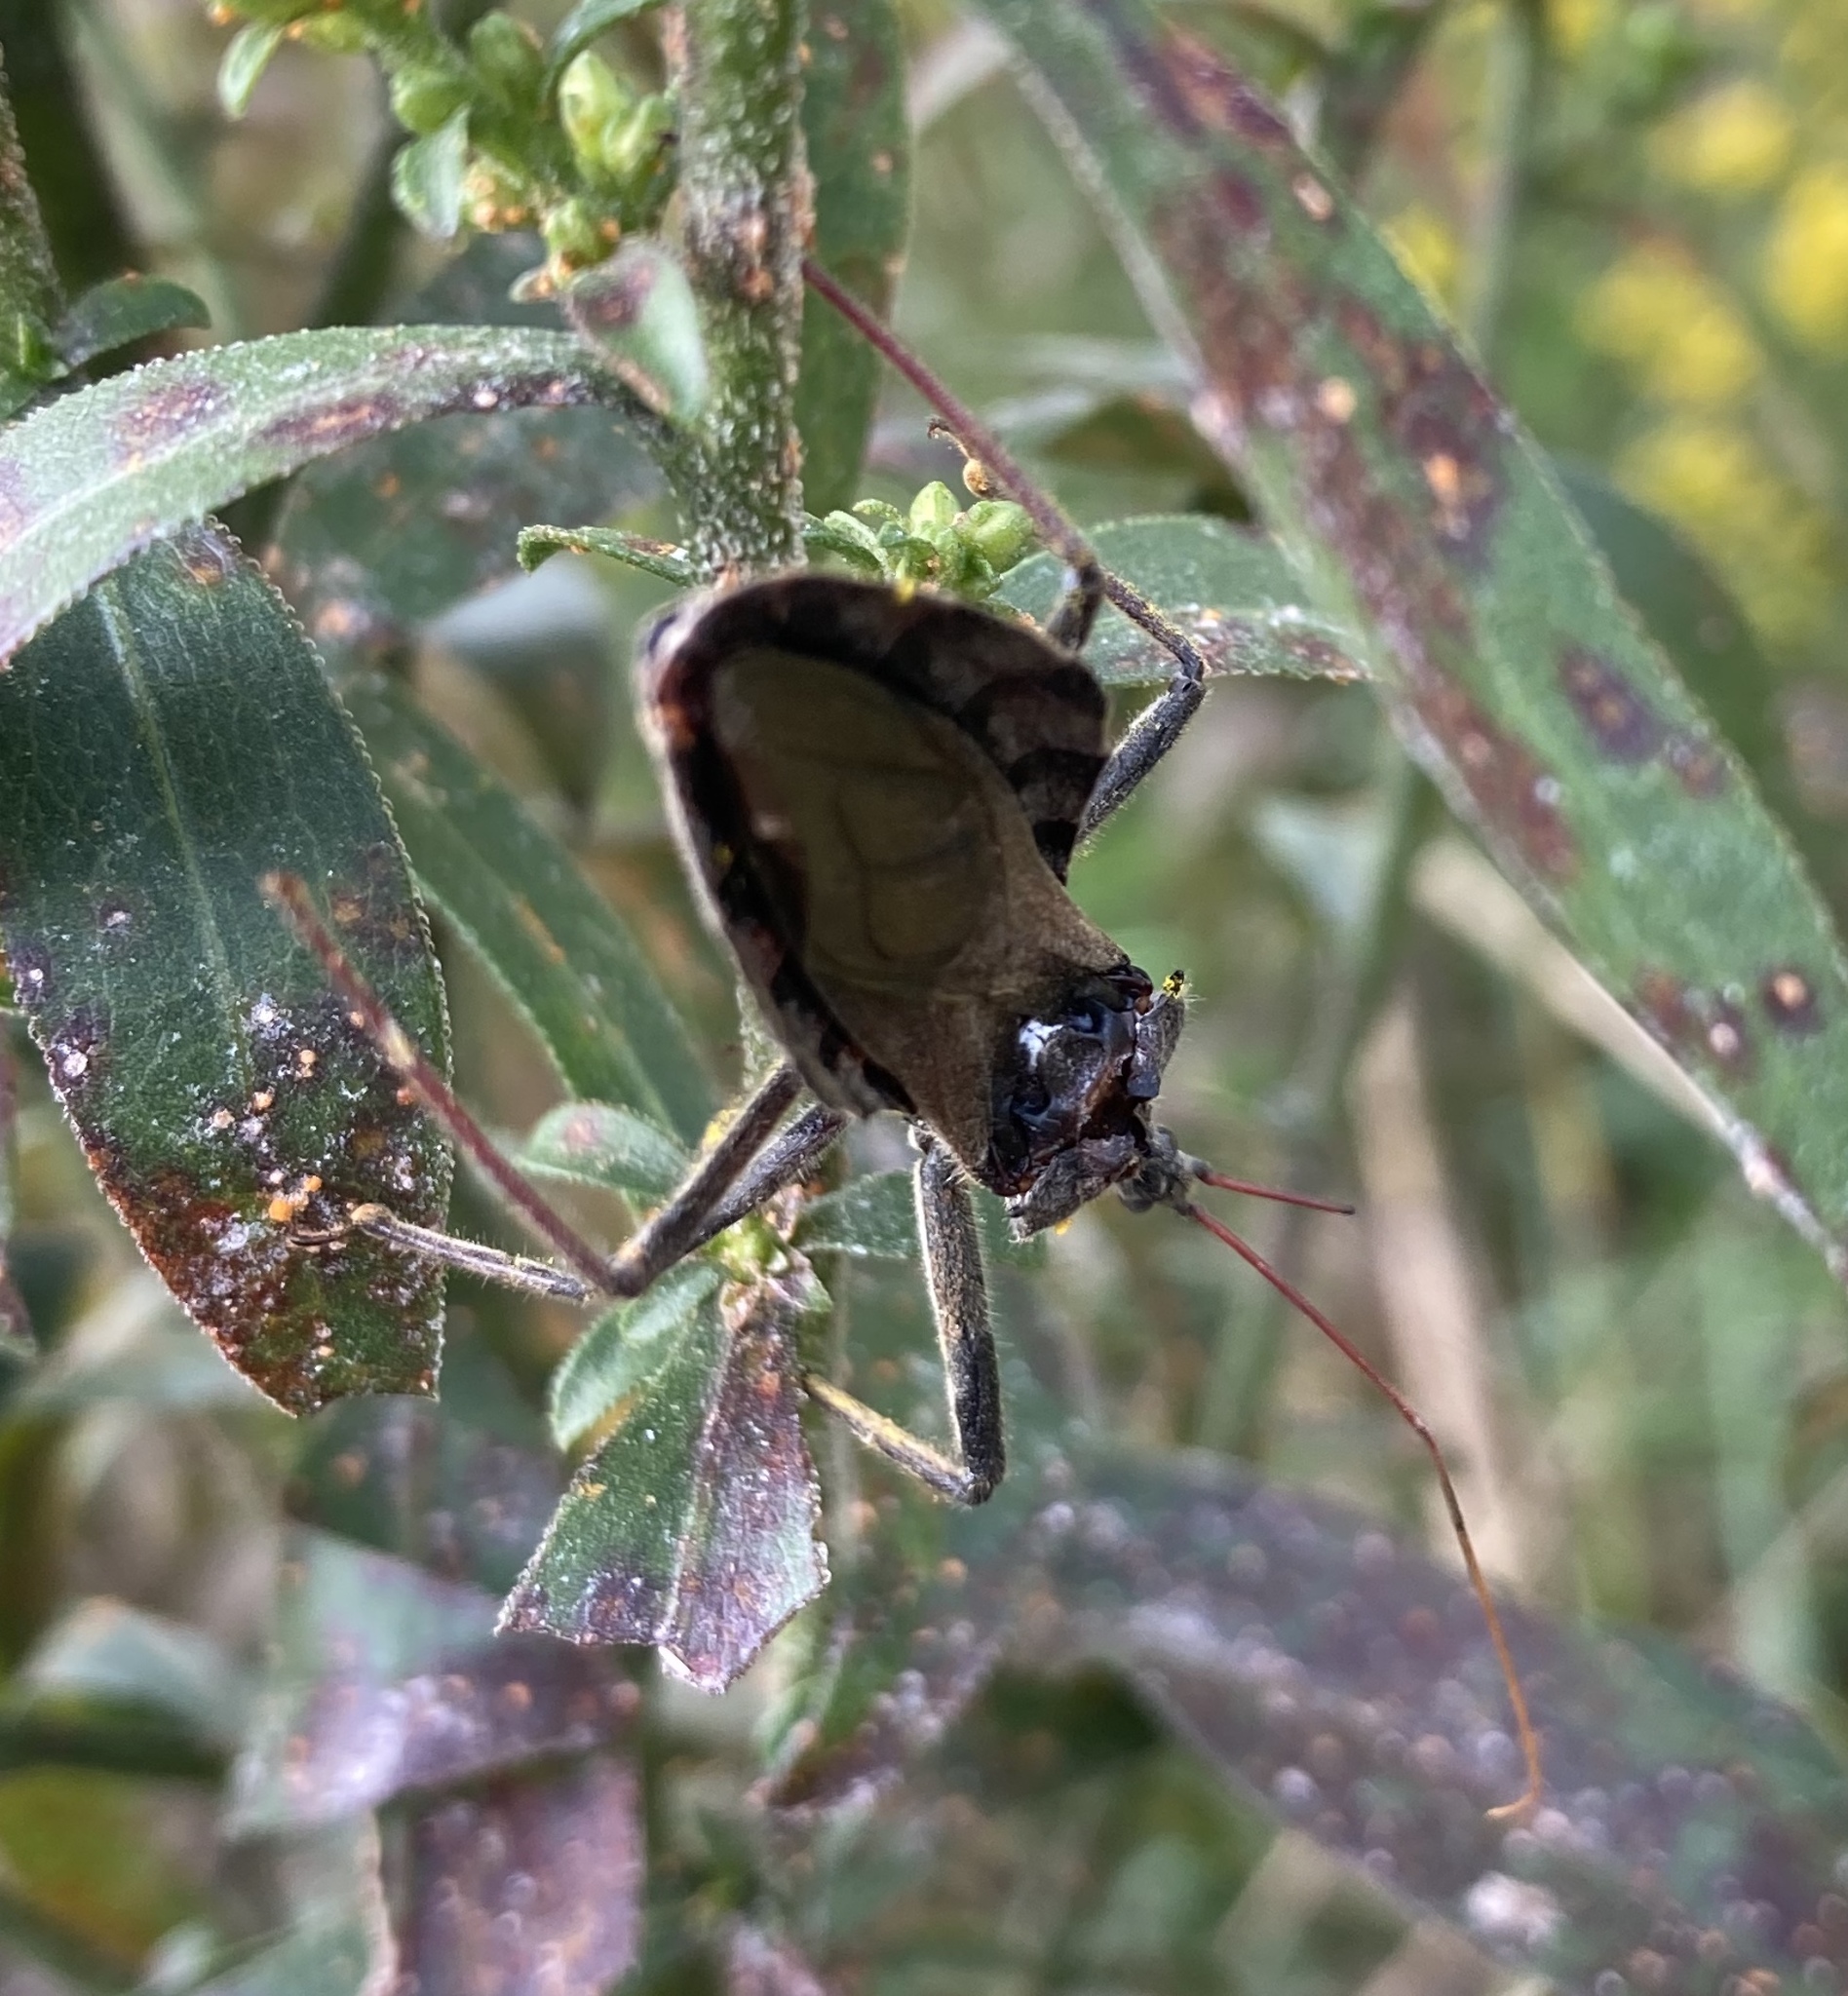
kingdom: Animalia
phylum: Arthropoda
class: Insecta
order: Hemiptera
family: Reduviidae
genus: Arilus
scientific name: Arilus cristatus
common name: North american wheel bug
